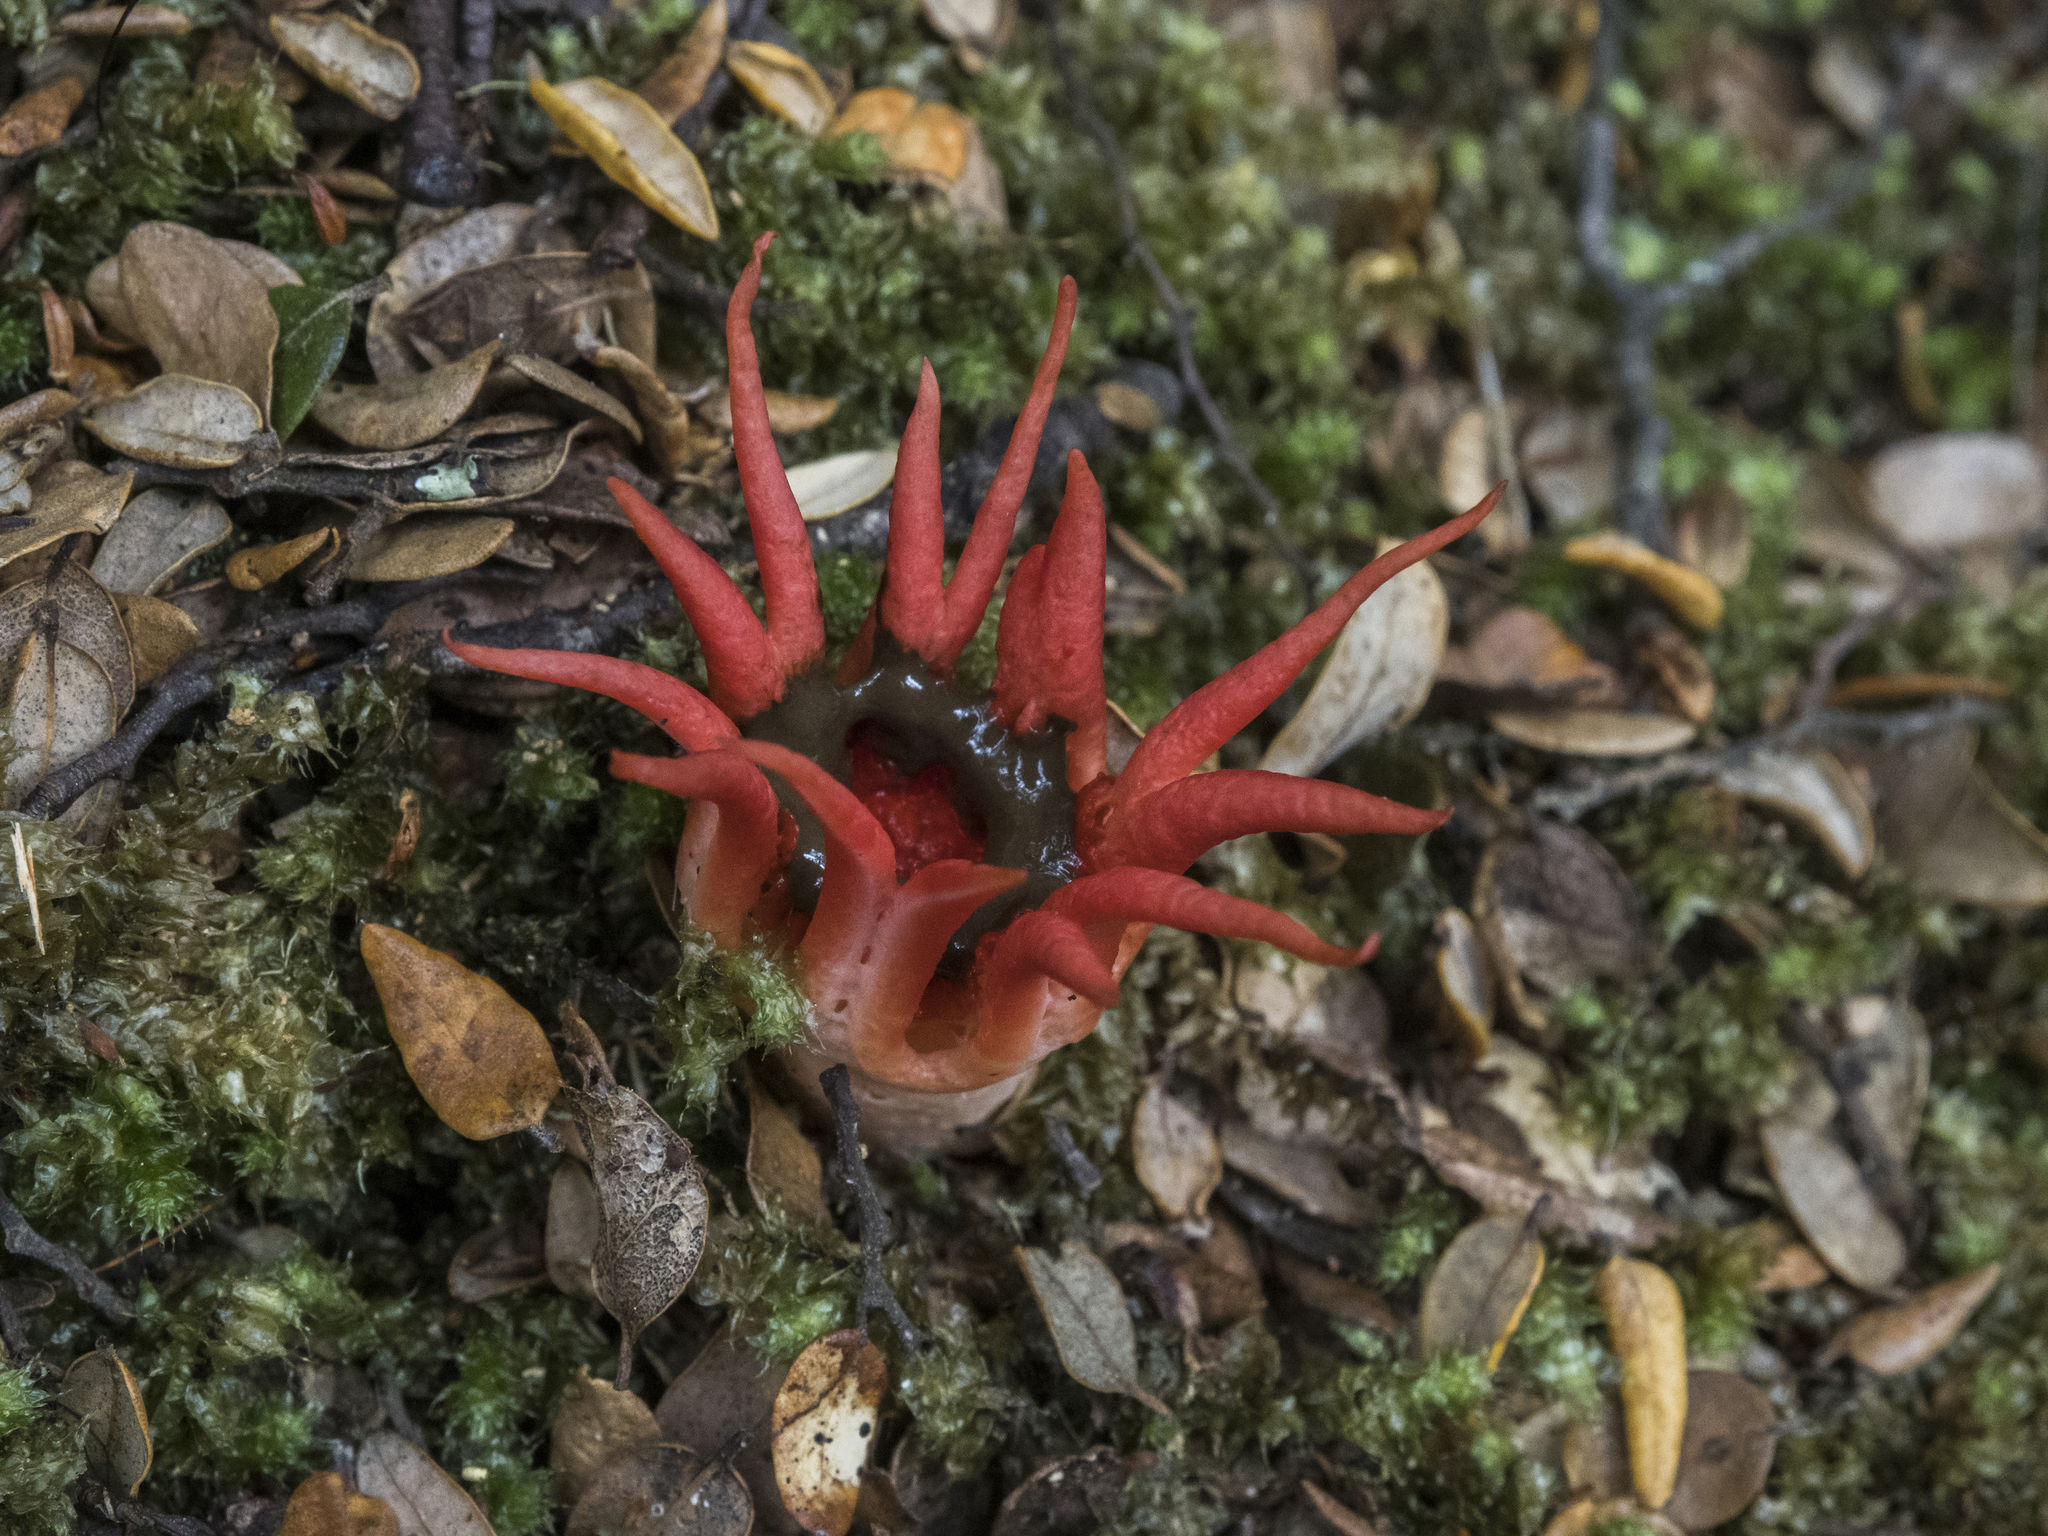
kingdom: Fungi
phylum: Basidiomycota
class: Agaricomycetes
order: Phallales
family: Phallaceae
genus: Aseroe
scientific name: Aseroe rubra
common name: Starfish fungus
